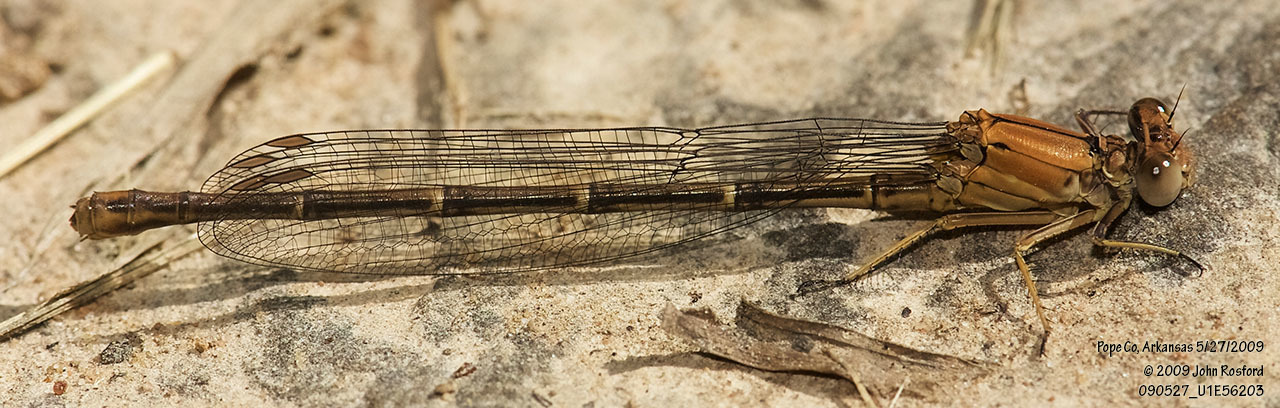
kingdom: Animalia
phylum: Arthropoda
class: Insecta
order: Odonata
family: Coenagrionidae
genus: Argia
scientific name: Argia moesta
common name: Powdered dancer
